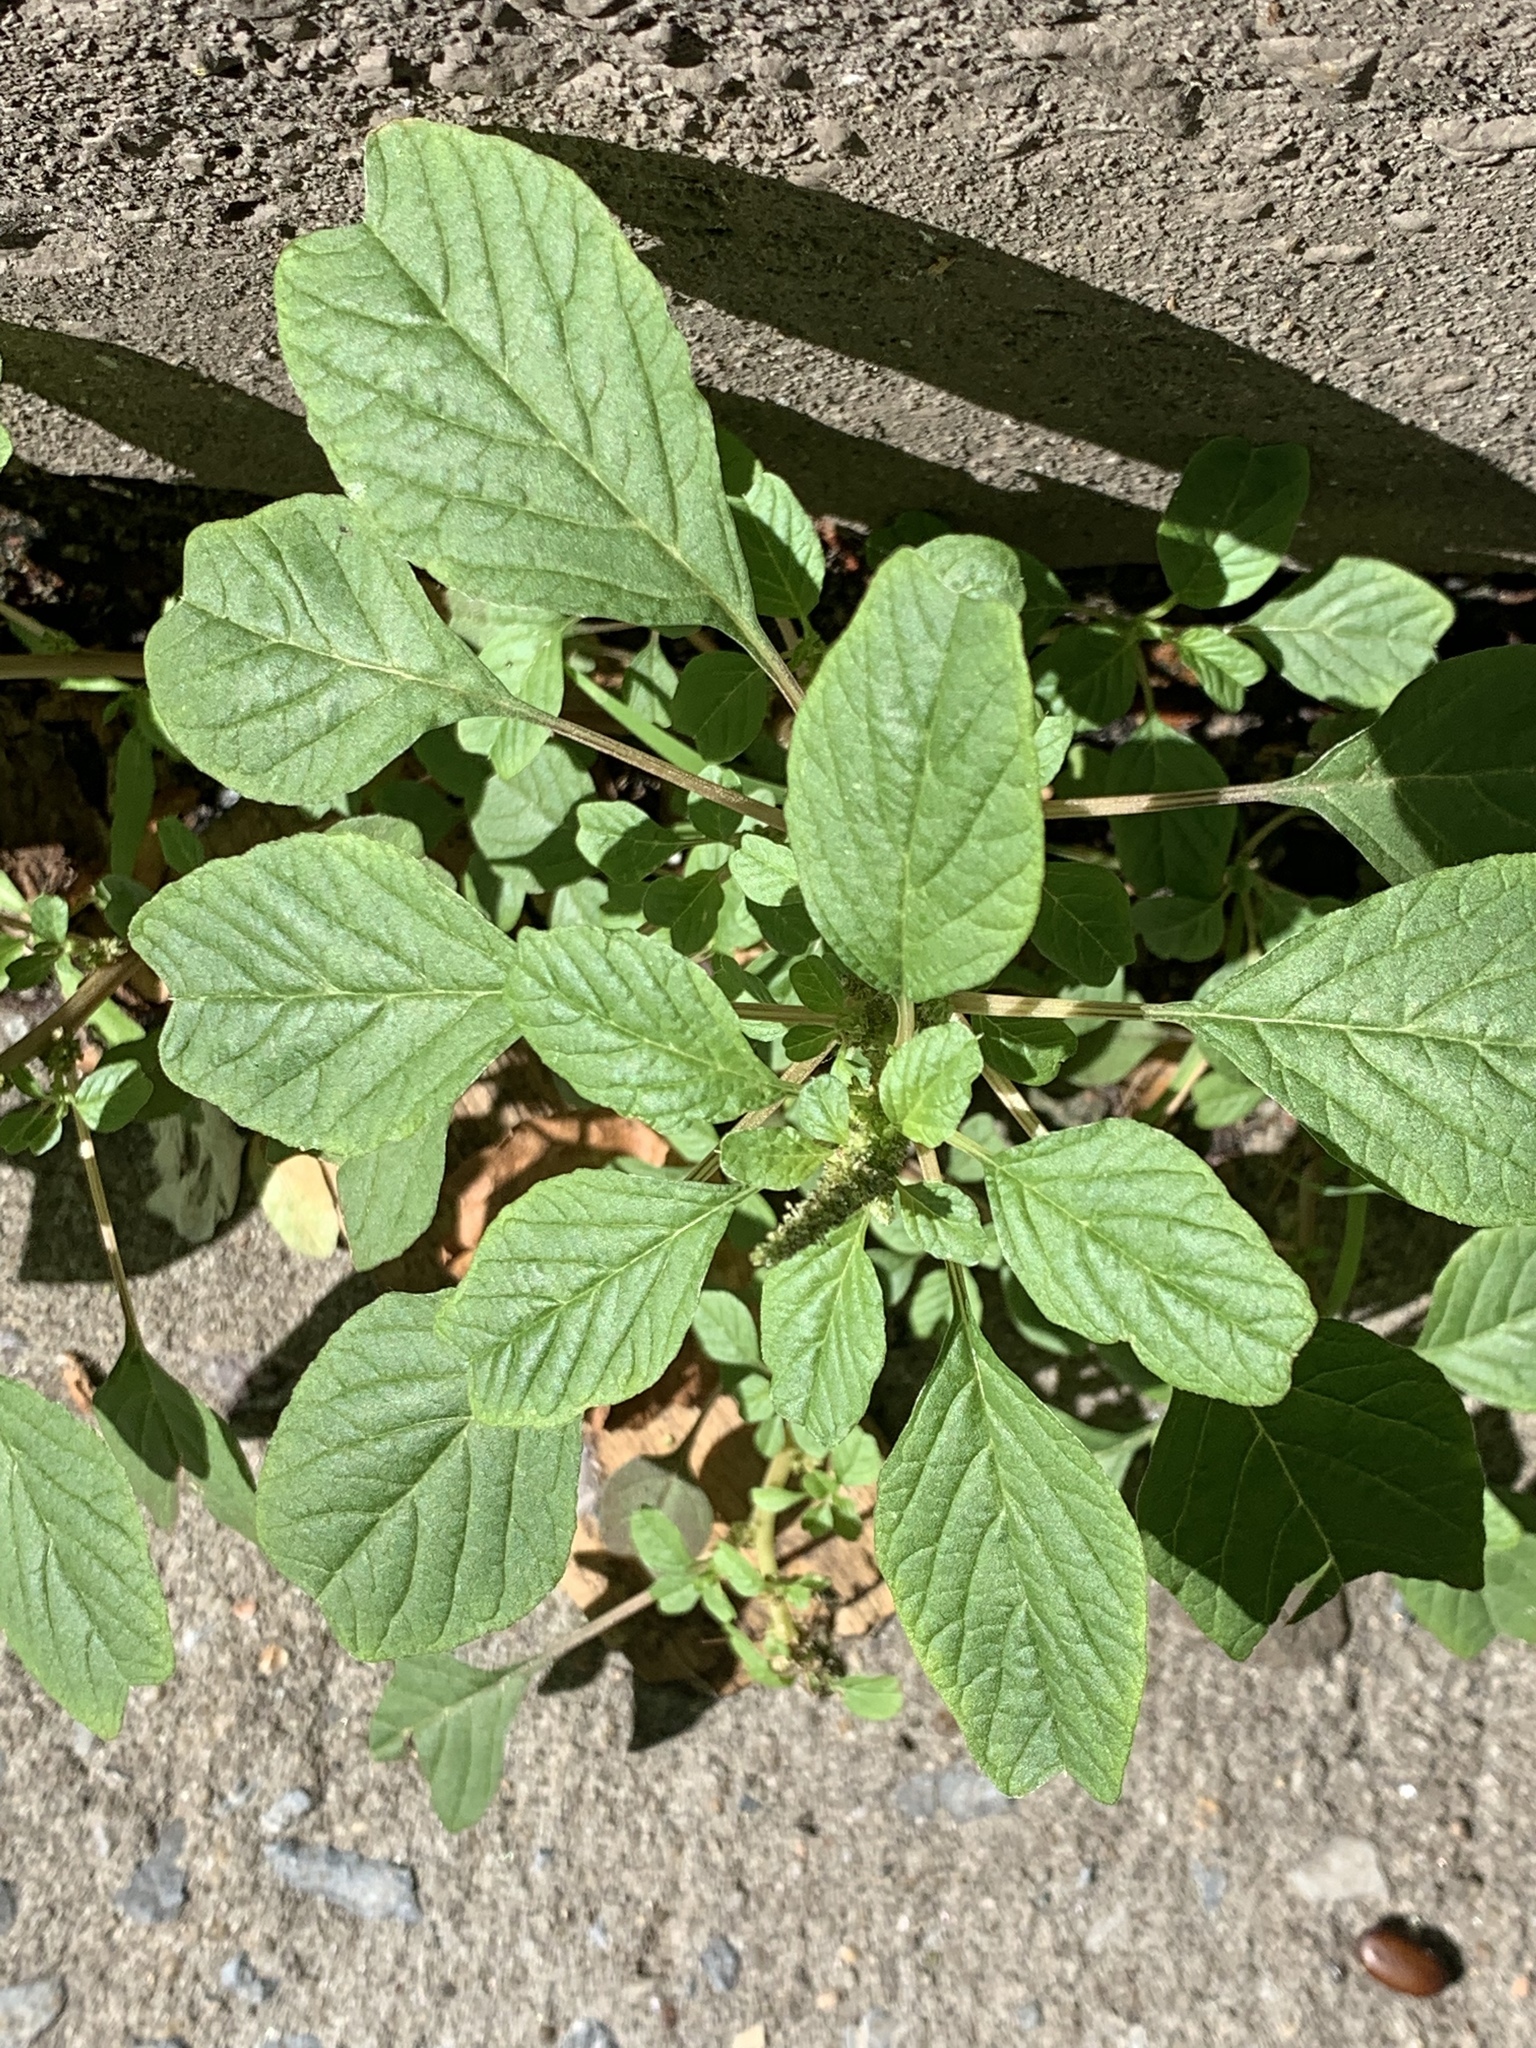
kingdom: Plantae
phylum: Tracheophyta
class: Magnoliopsida
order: Caryophyllales
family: Amaranthaceae
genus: Amaranthus
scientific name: Amaranthus blitum
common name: Purple amaranth
